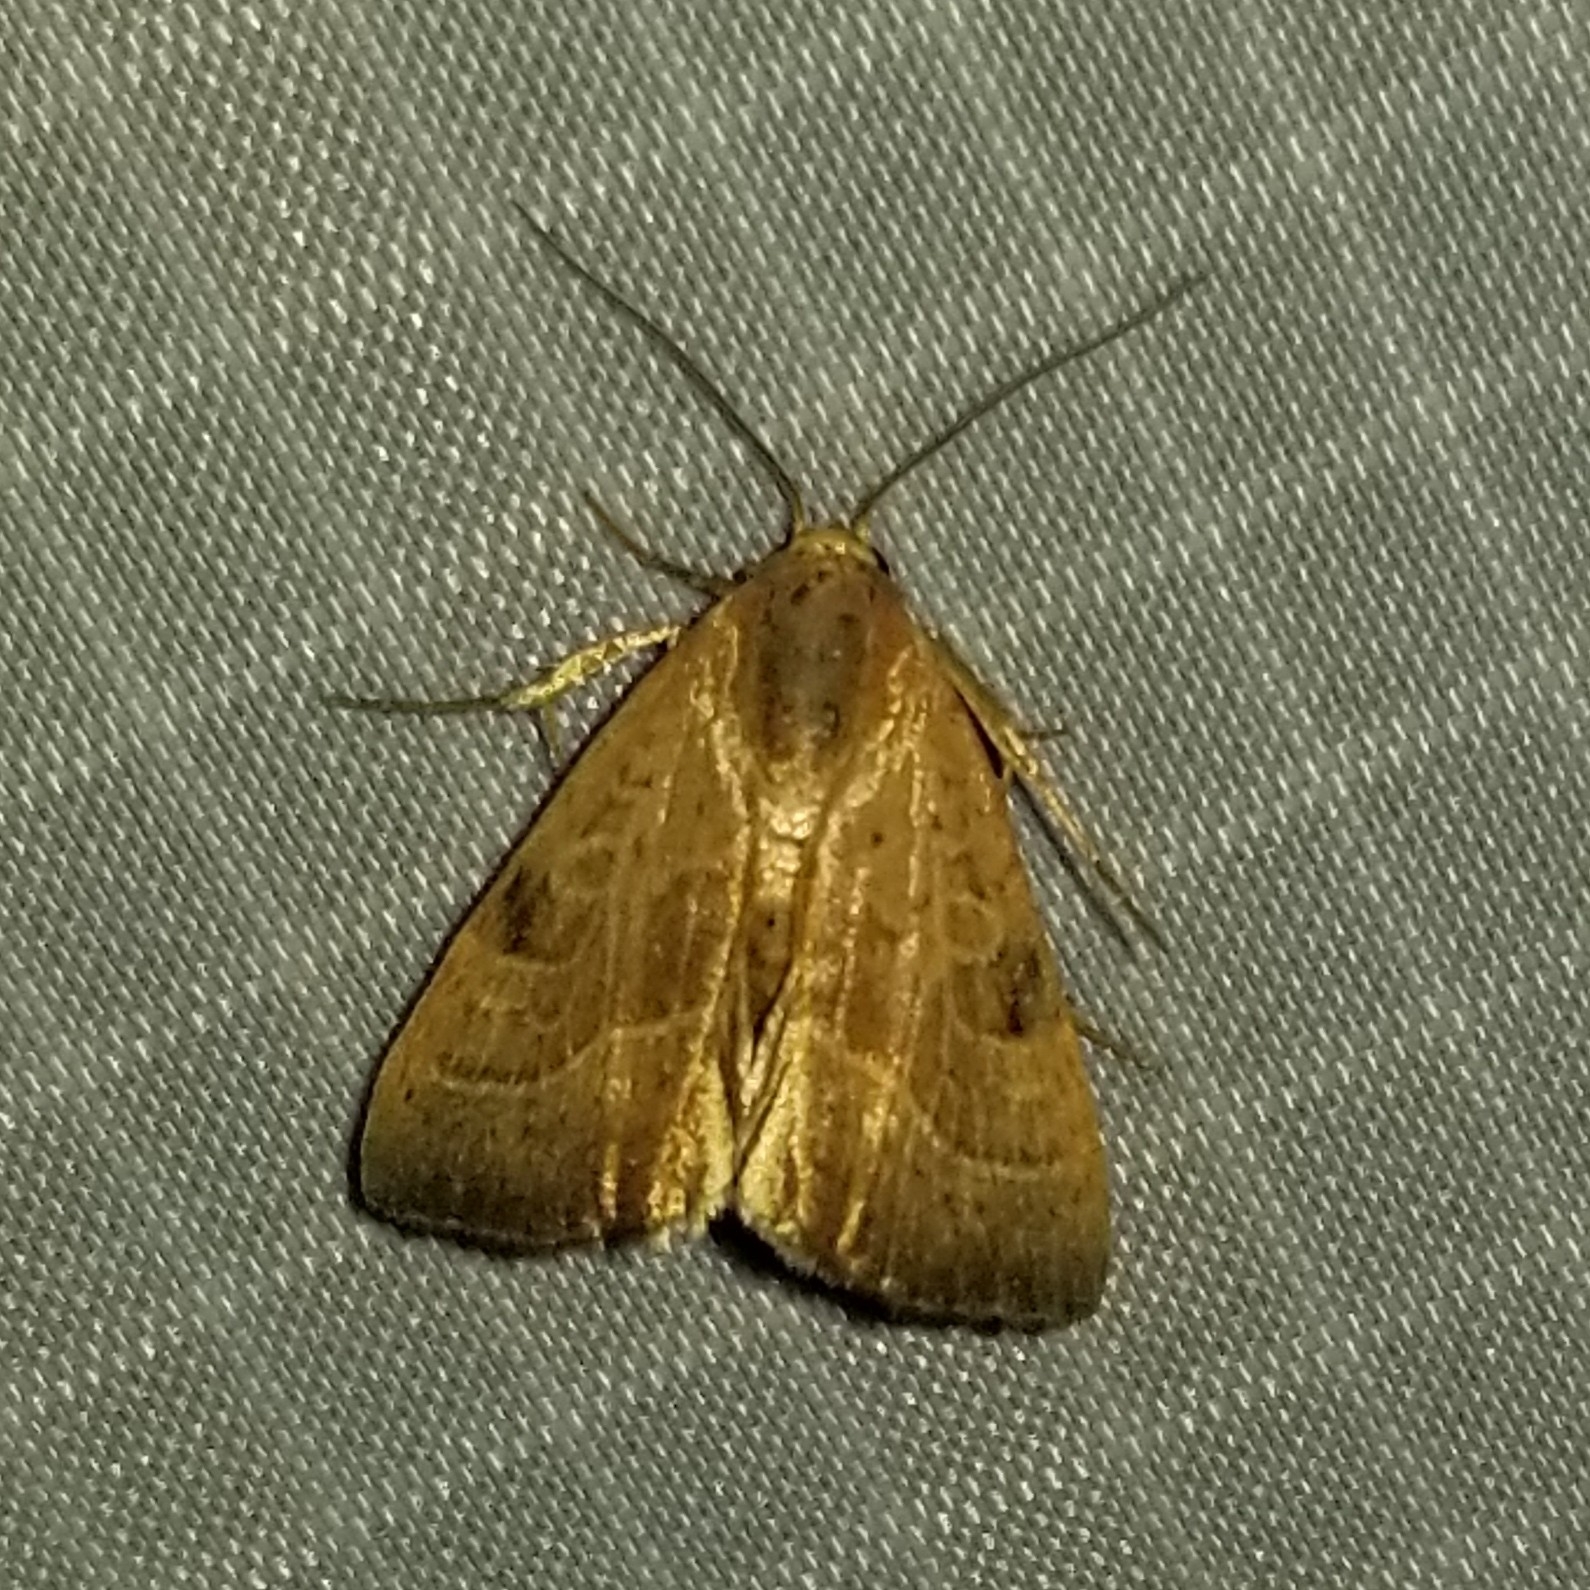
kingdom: Animalia
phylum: Arthropoda
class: Insecta
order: Lepidoptera
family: Noctuidae
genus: Galgula
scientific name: Galgula partita
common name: Wedgeling
